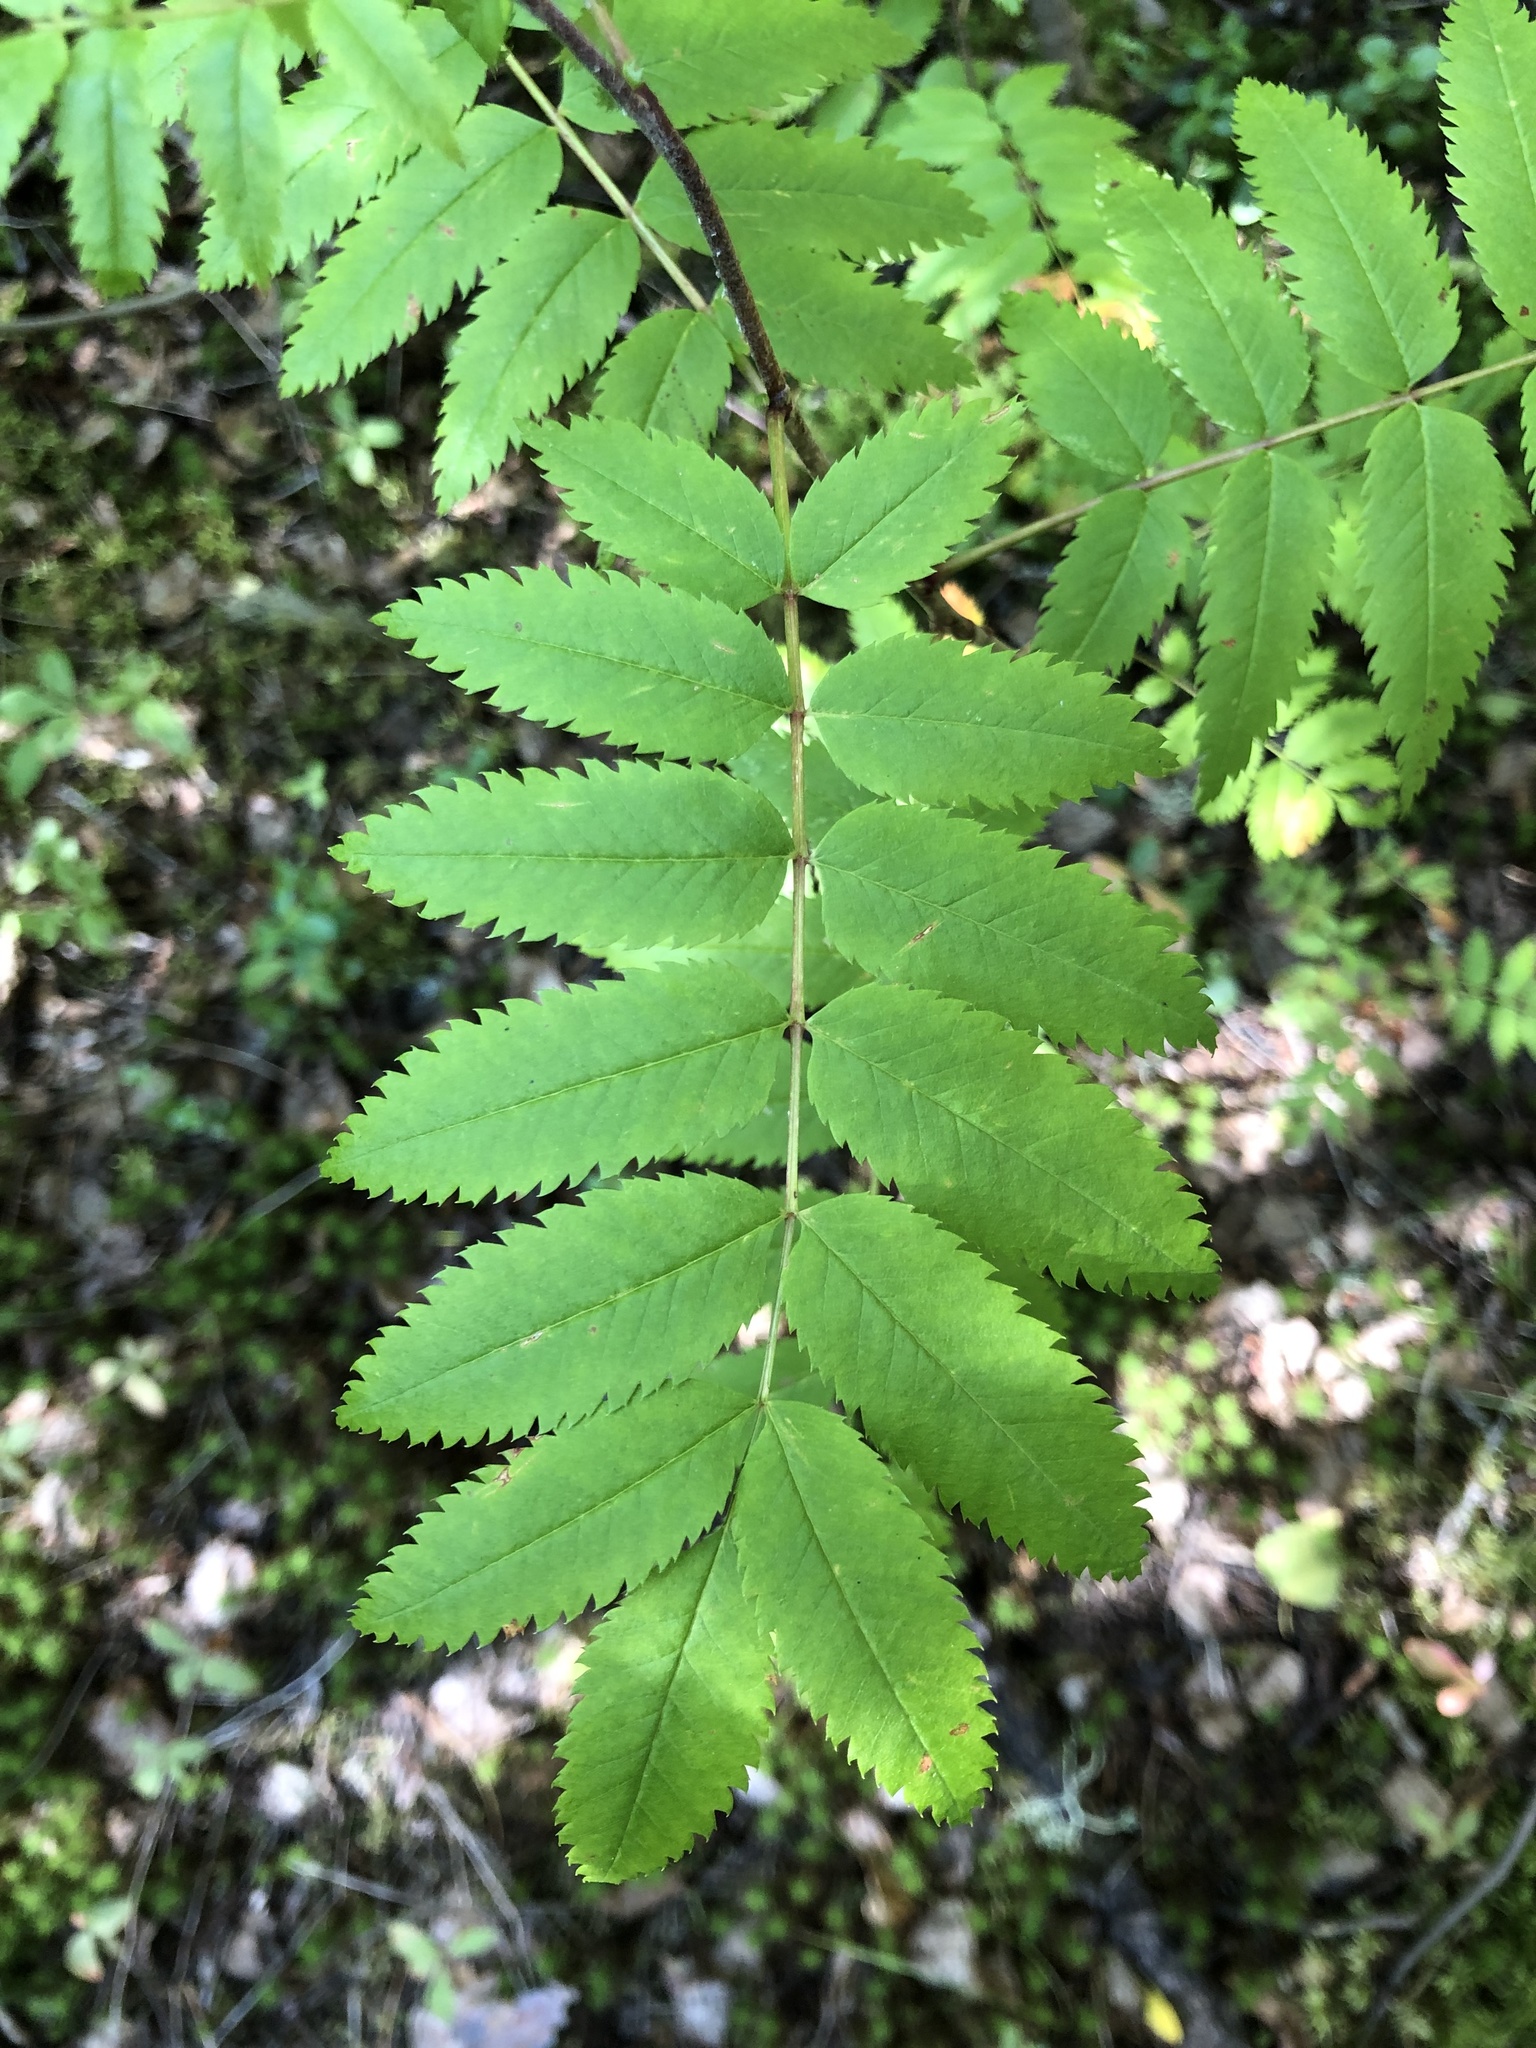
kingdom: Plantae
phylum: Tracheophyta
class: Magnoliopsida
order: Rosales
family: Rosaceae
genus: Sorbus
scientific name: Sorbus aucuparia
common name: Rowan
